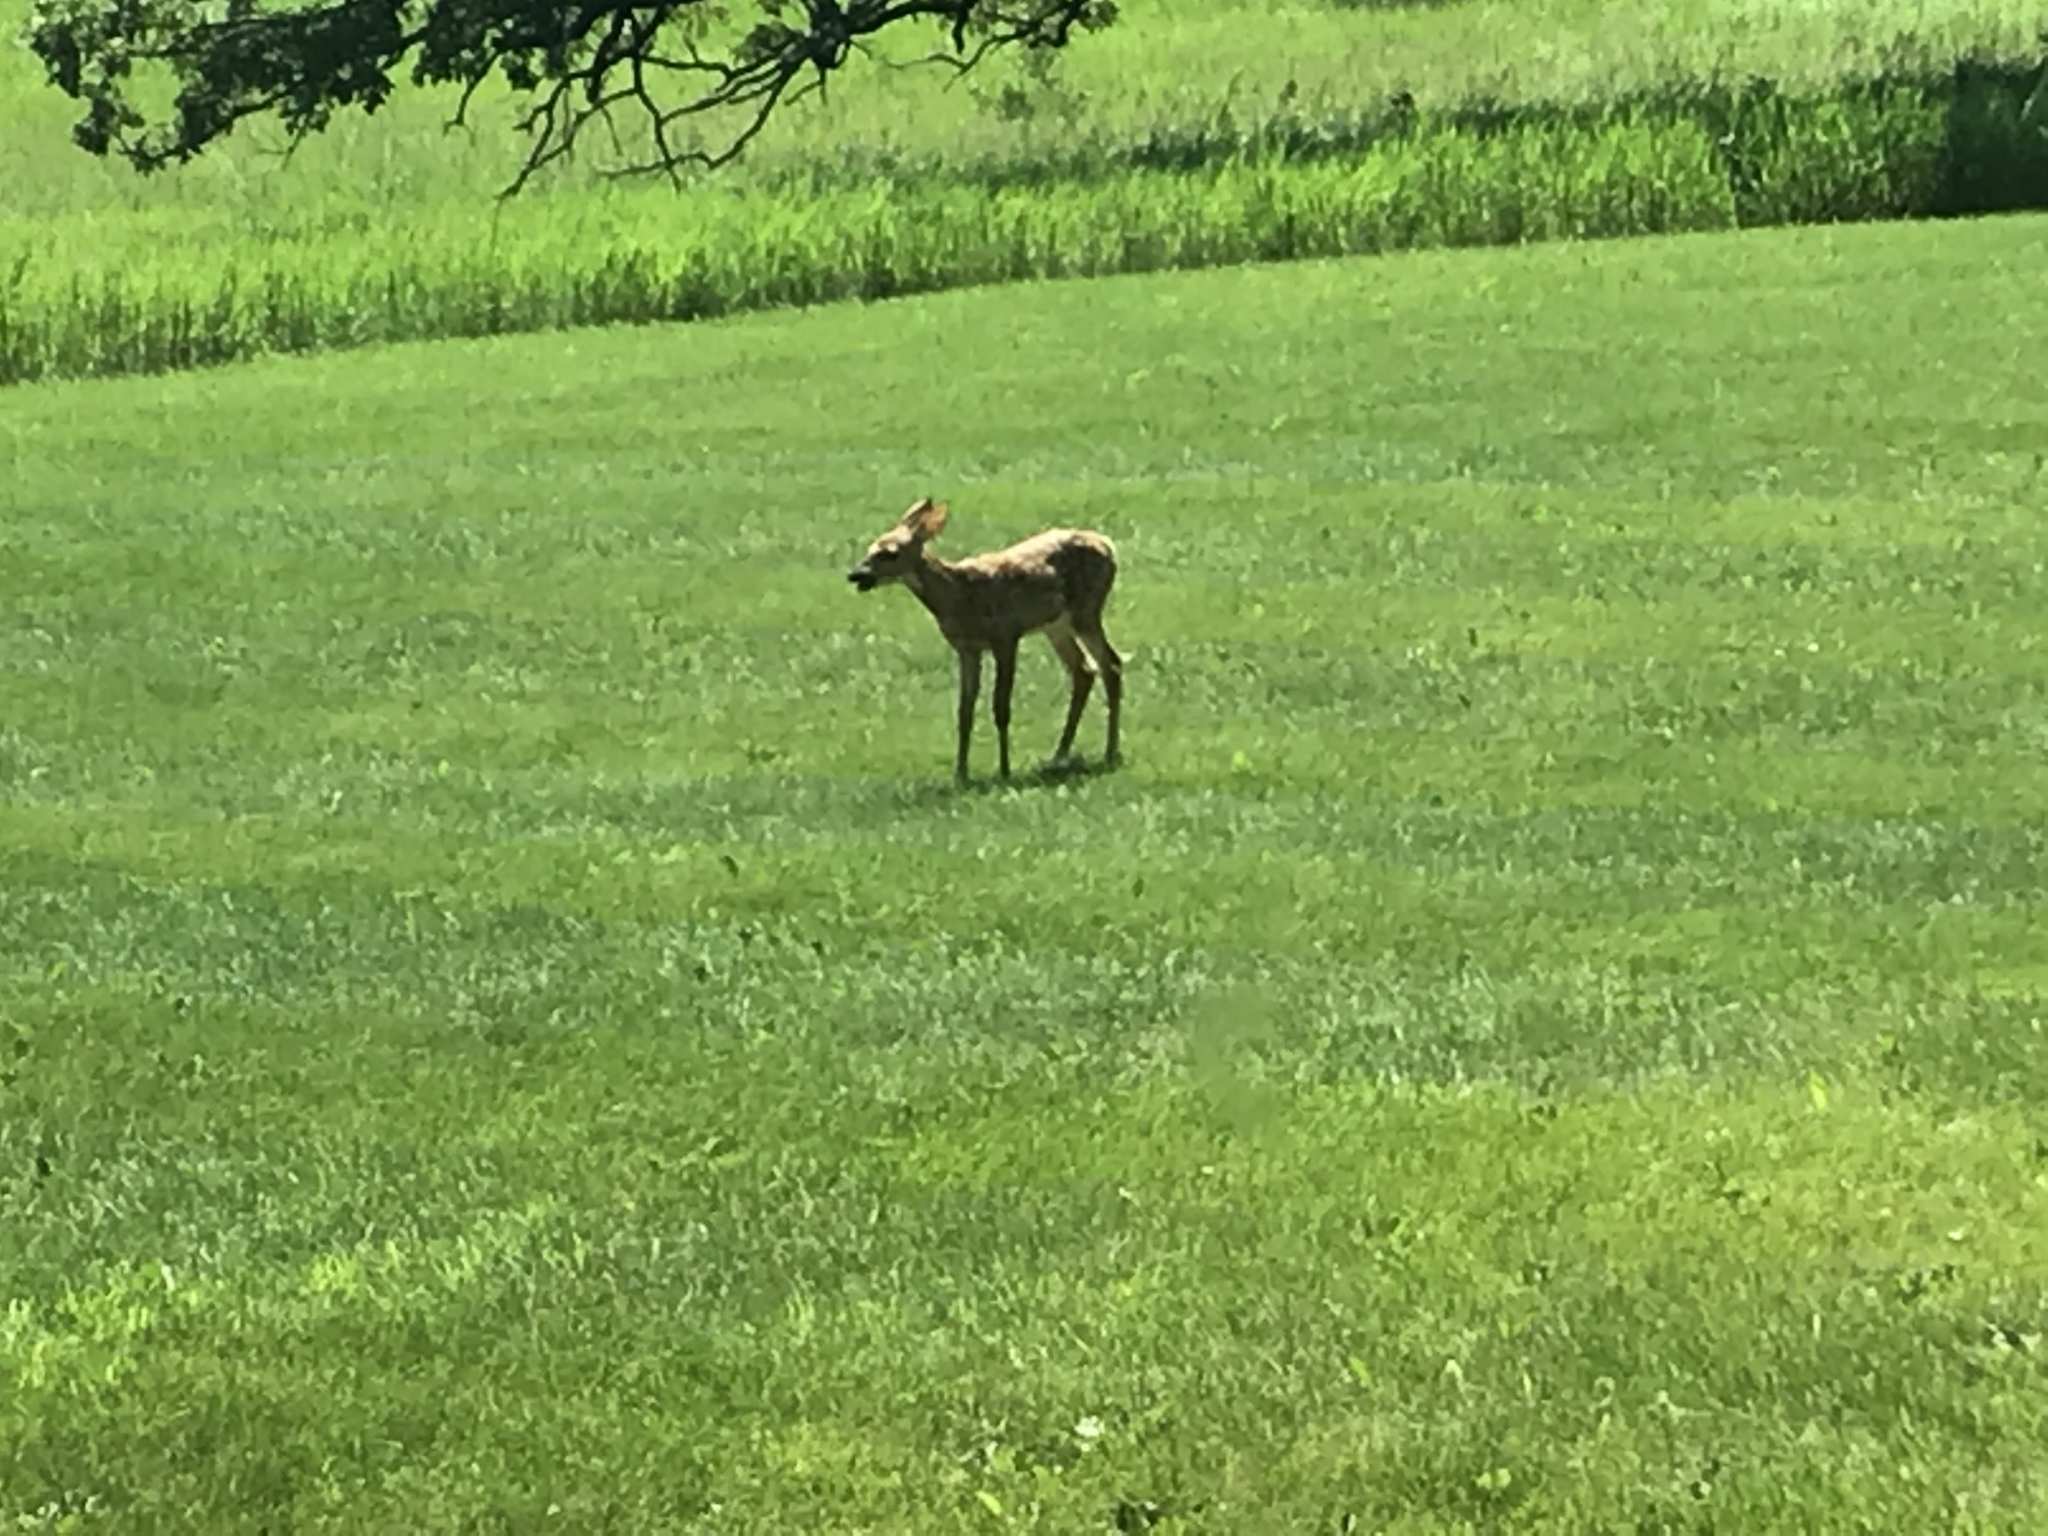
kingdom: Animalia
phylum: Chordata
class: Mammalia
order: Artiodactyla
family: Cervidae
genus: Odocoileus
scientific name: Odocoileus virginianus
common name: White-tailed deer
